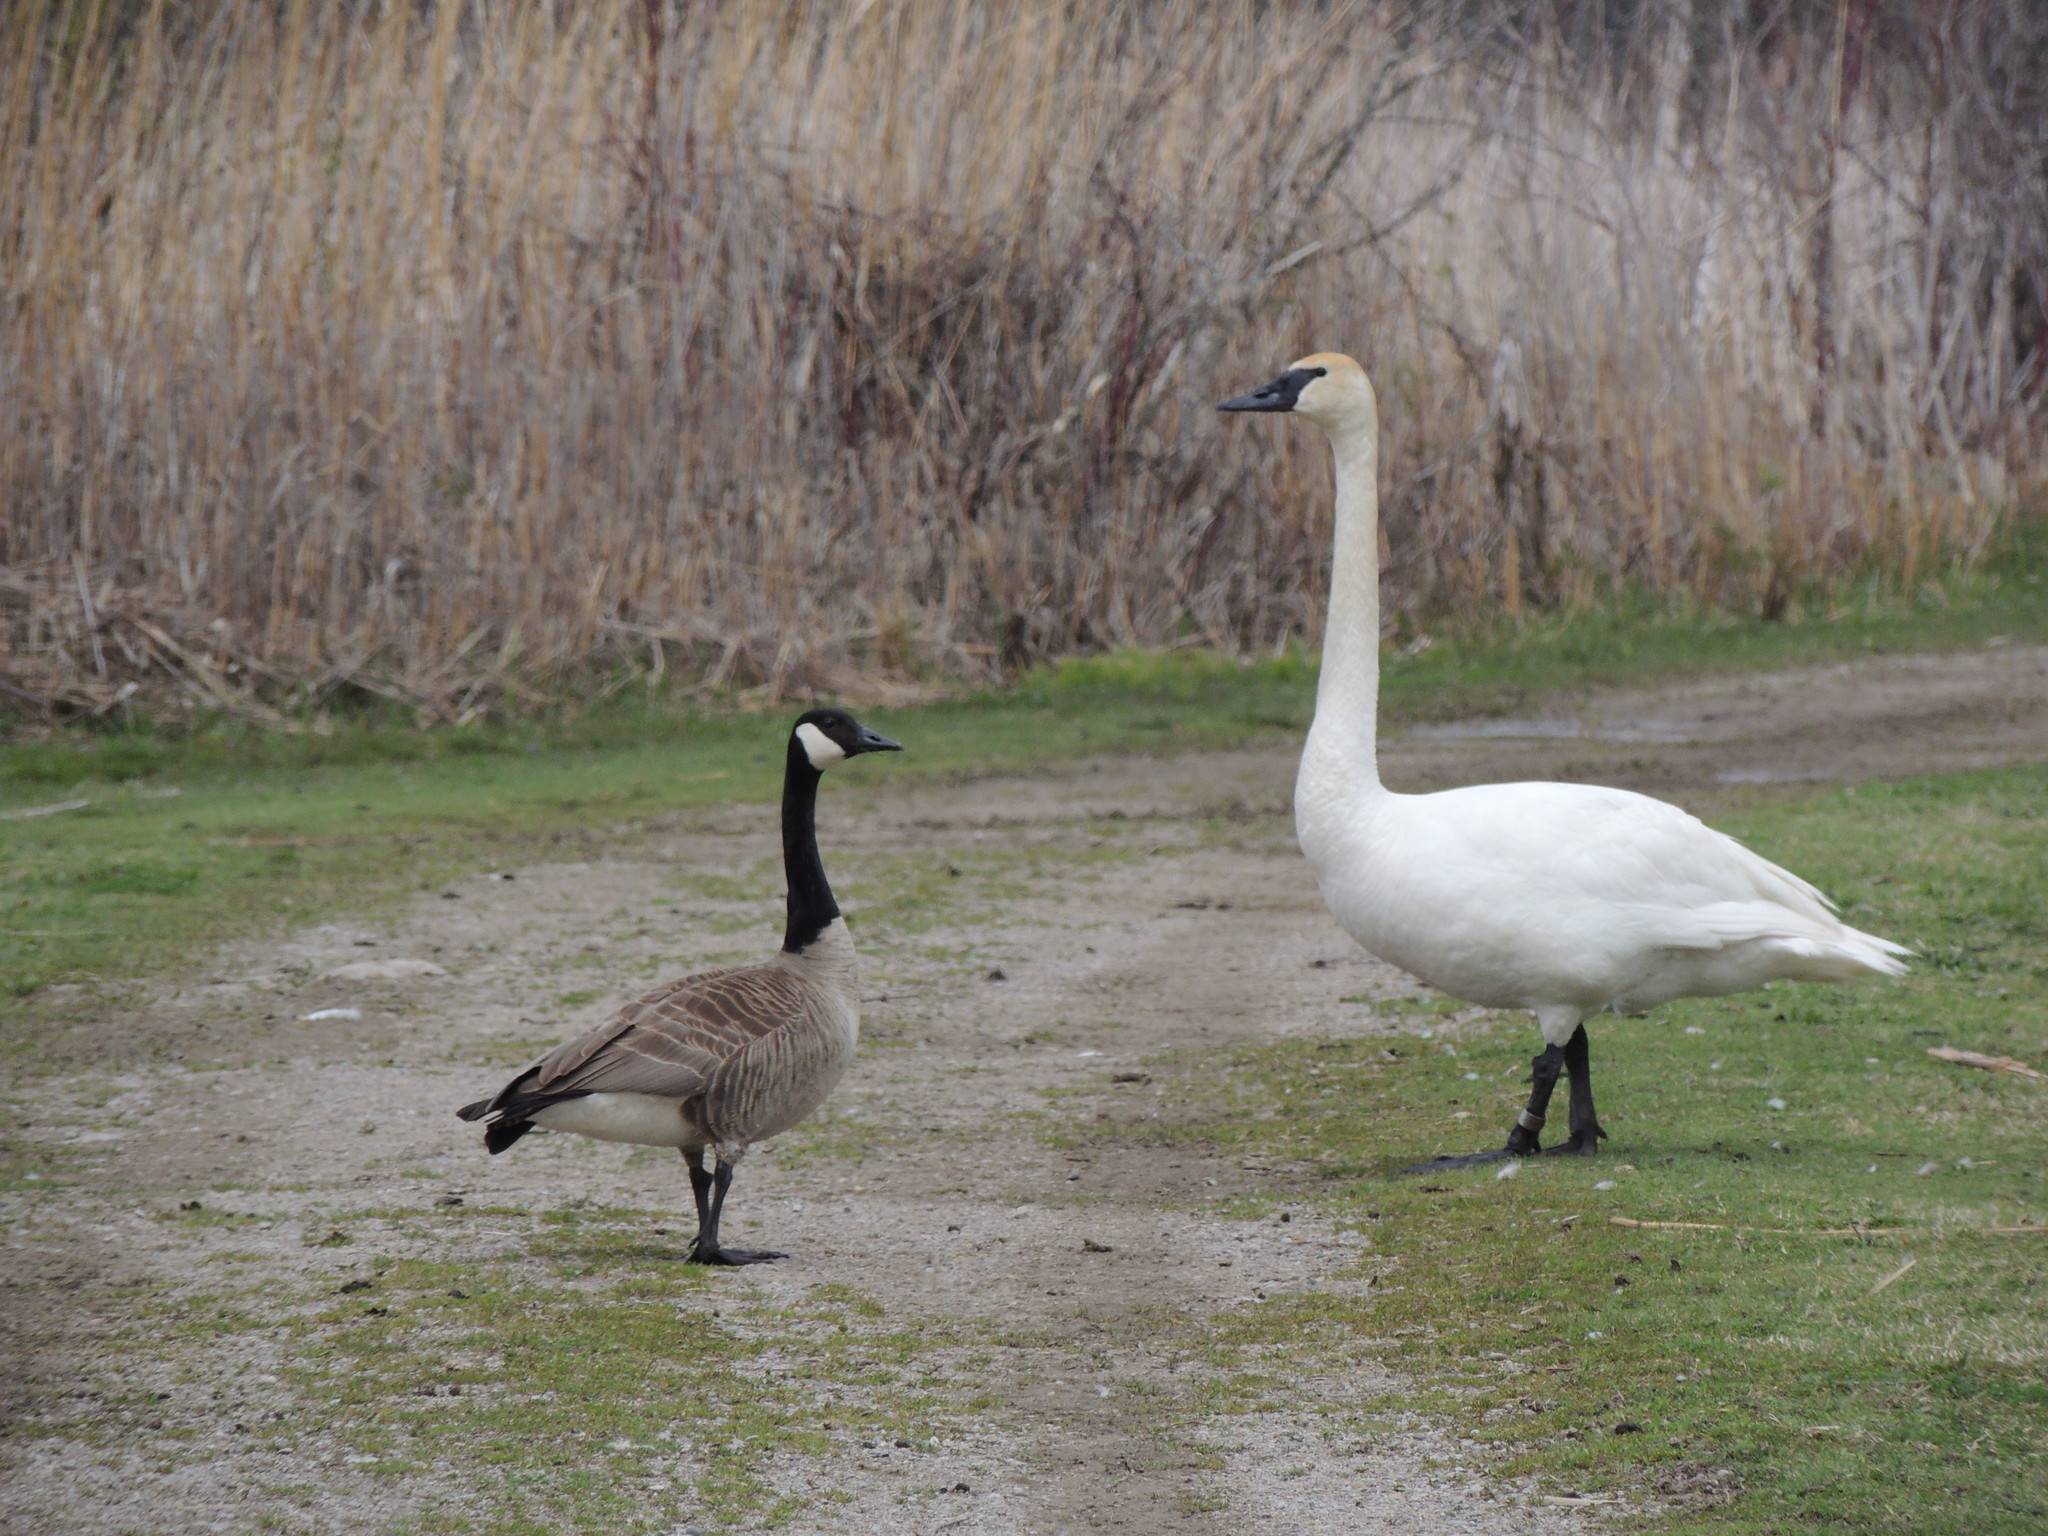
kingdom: Animalia
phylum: Chordata
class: Aves
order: Anseriformes
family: Anatidae
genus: Cygnus
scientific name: Cygnus buccinator
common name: Trumpeter swan
